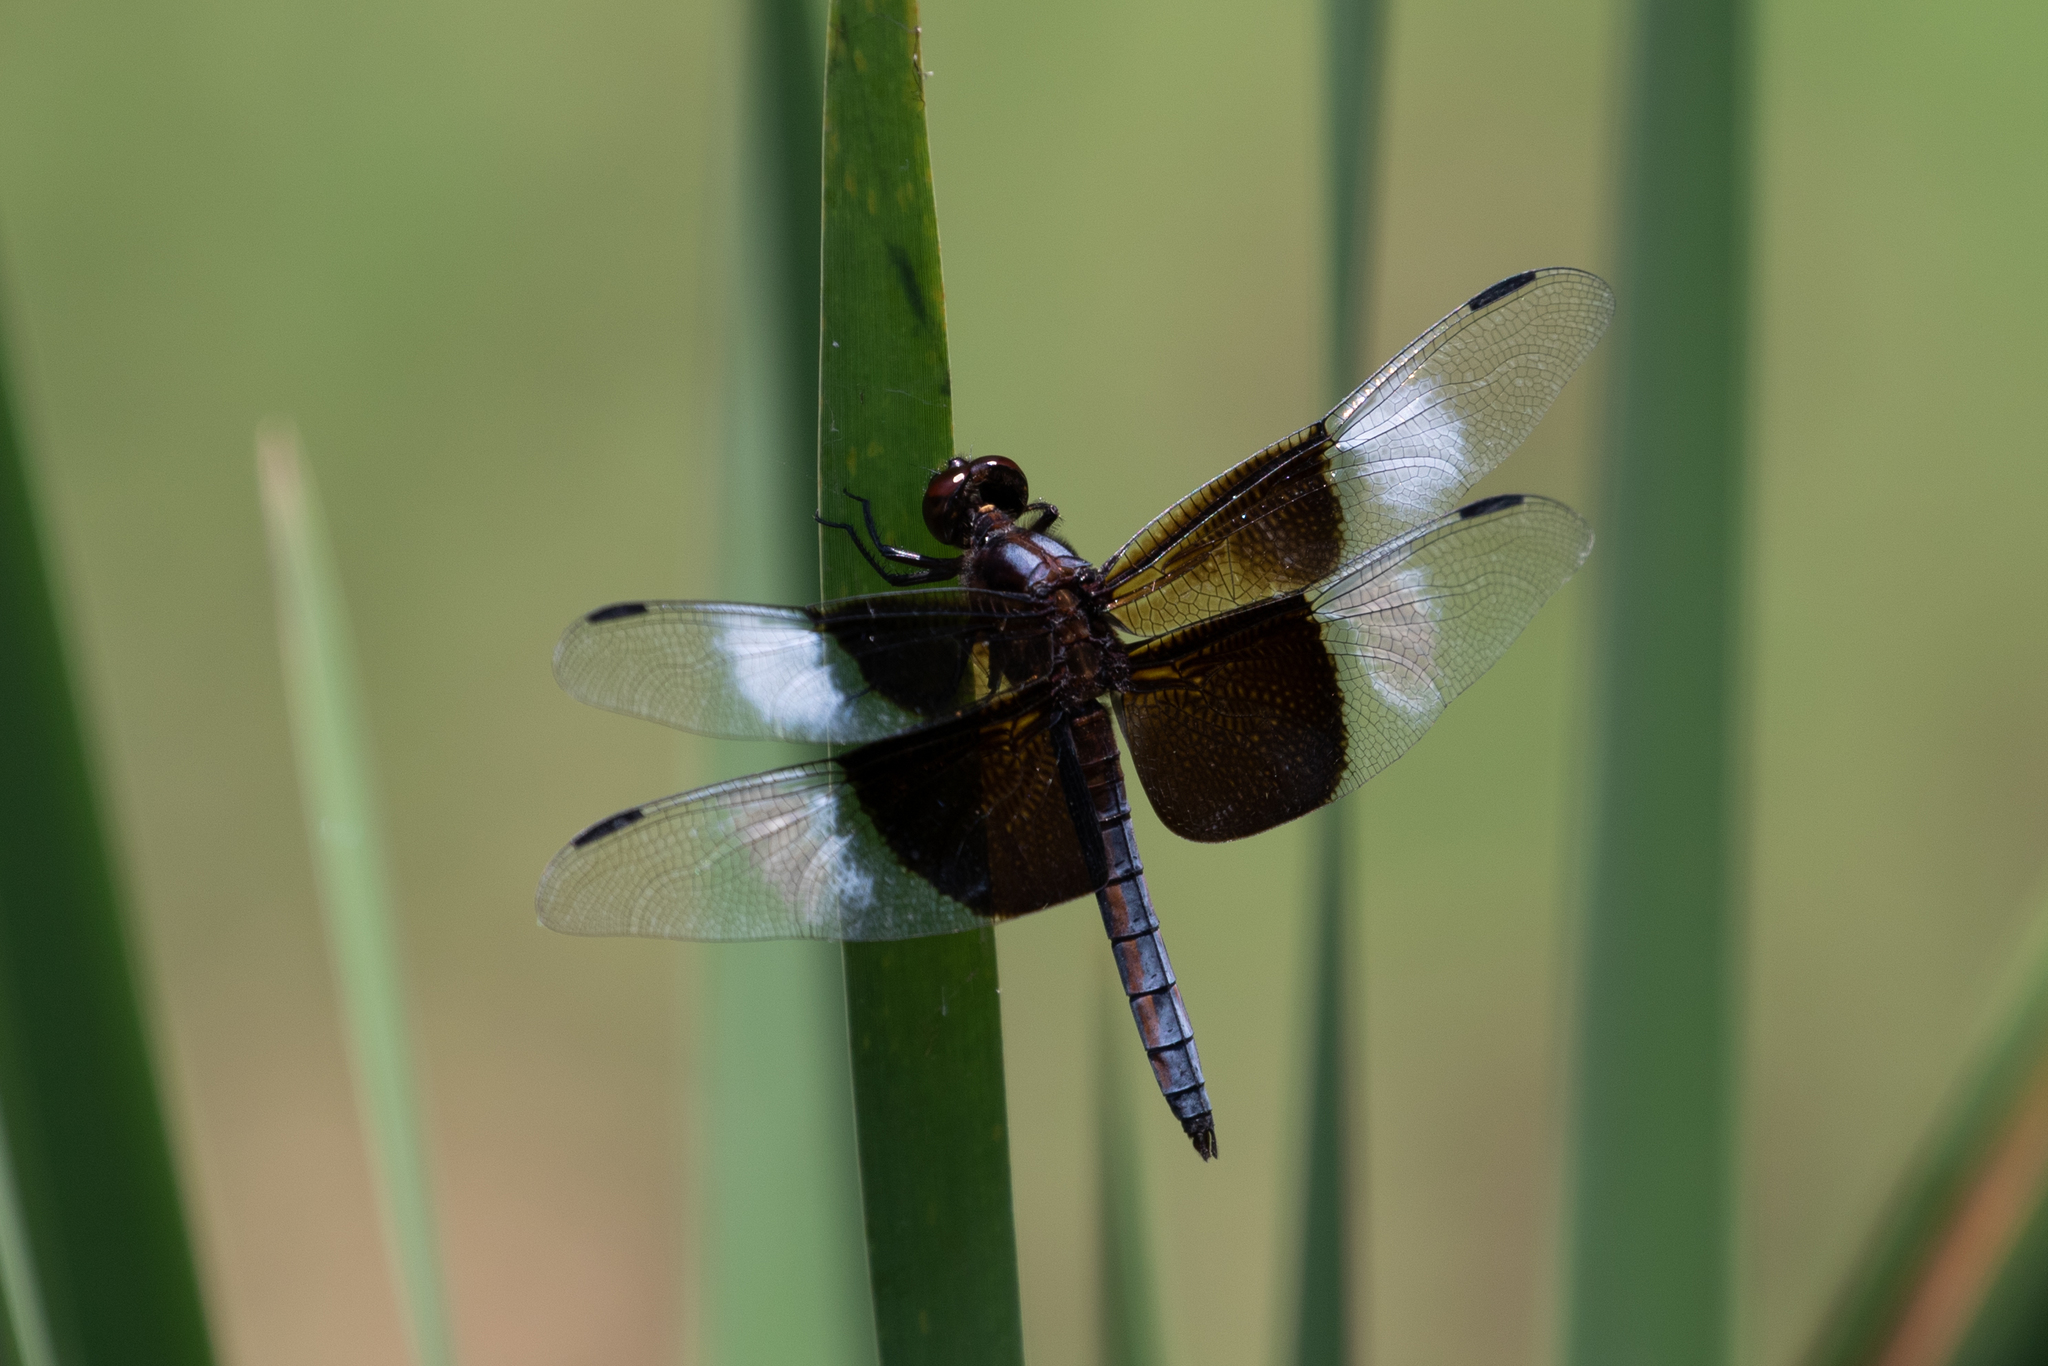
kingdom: Animalia
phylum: Arthropoda
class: Insecta
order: Odonata
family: Libellulidae
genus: Libellula
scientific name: Libellula luctuosa
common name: Widow skimmer
